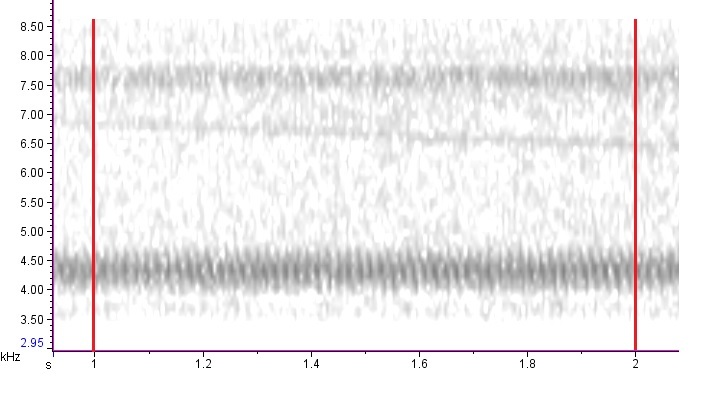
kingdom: Animalia
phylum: Arthropoda
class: Insecta
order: Orthoptera
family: Gryllidae
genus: Oecanthus
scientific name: Oecanthus quadripunctatus
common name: Four-spotted tree cricket
